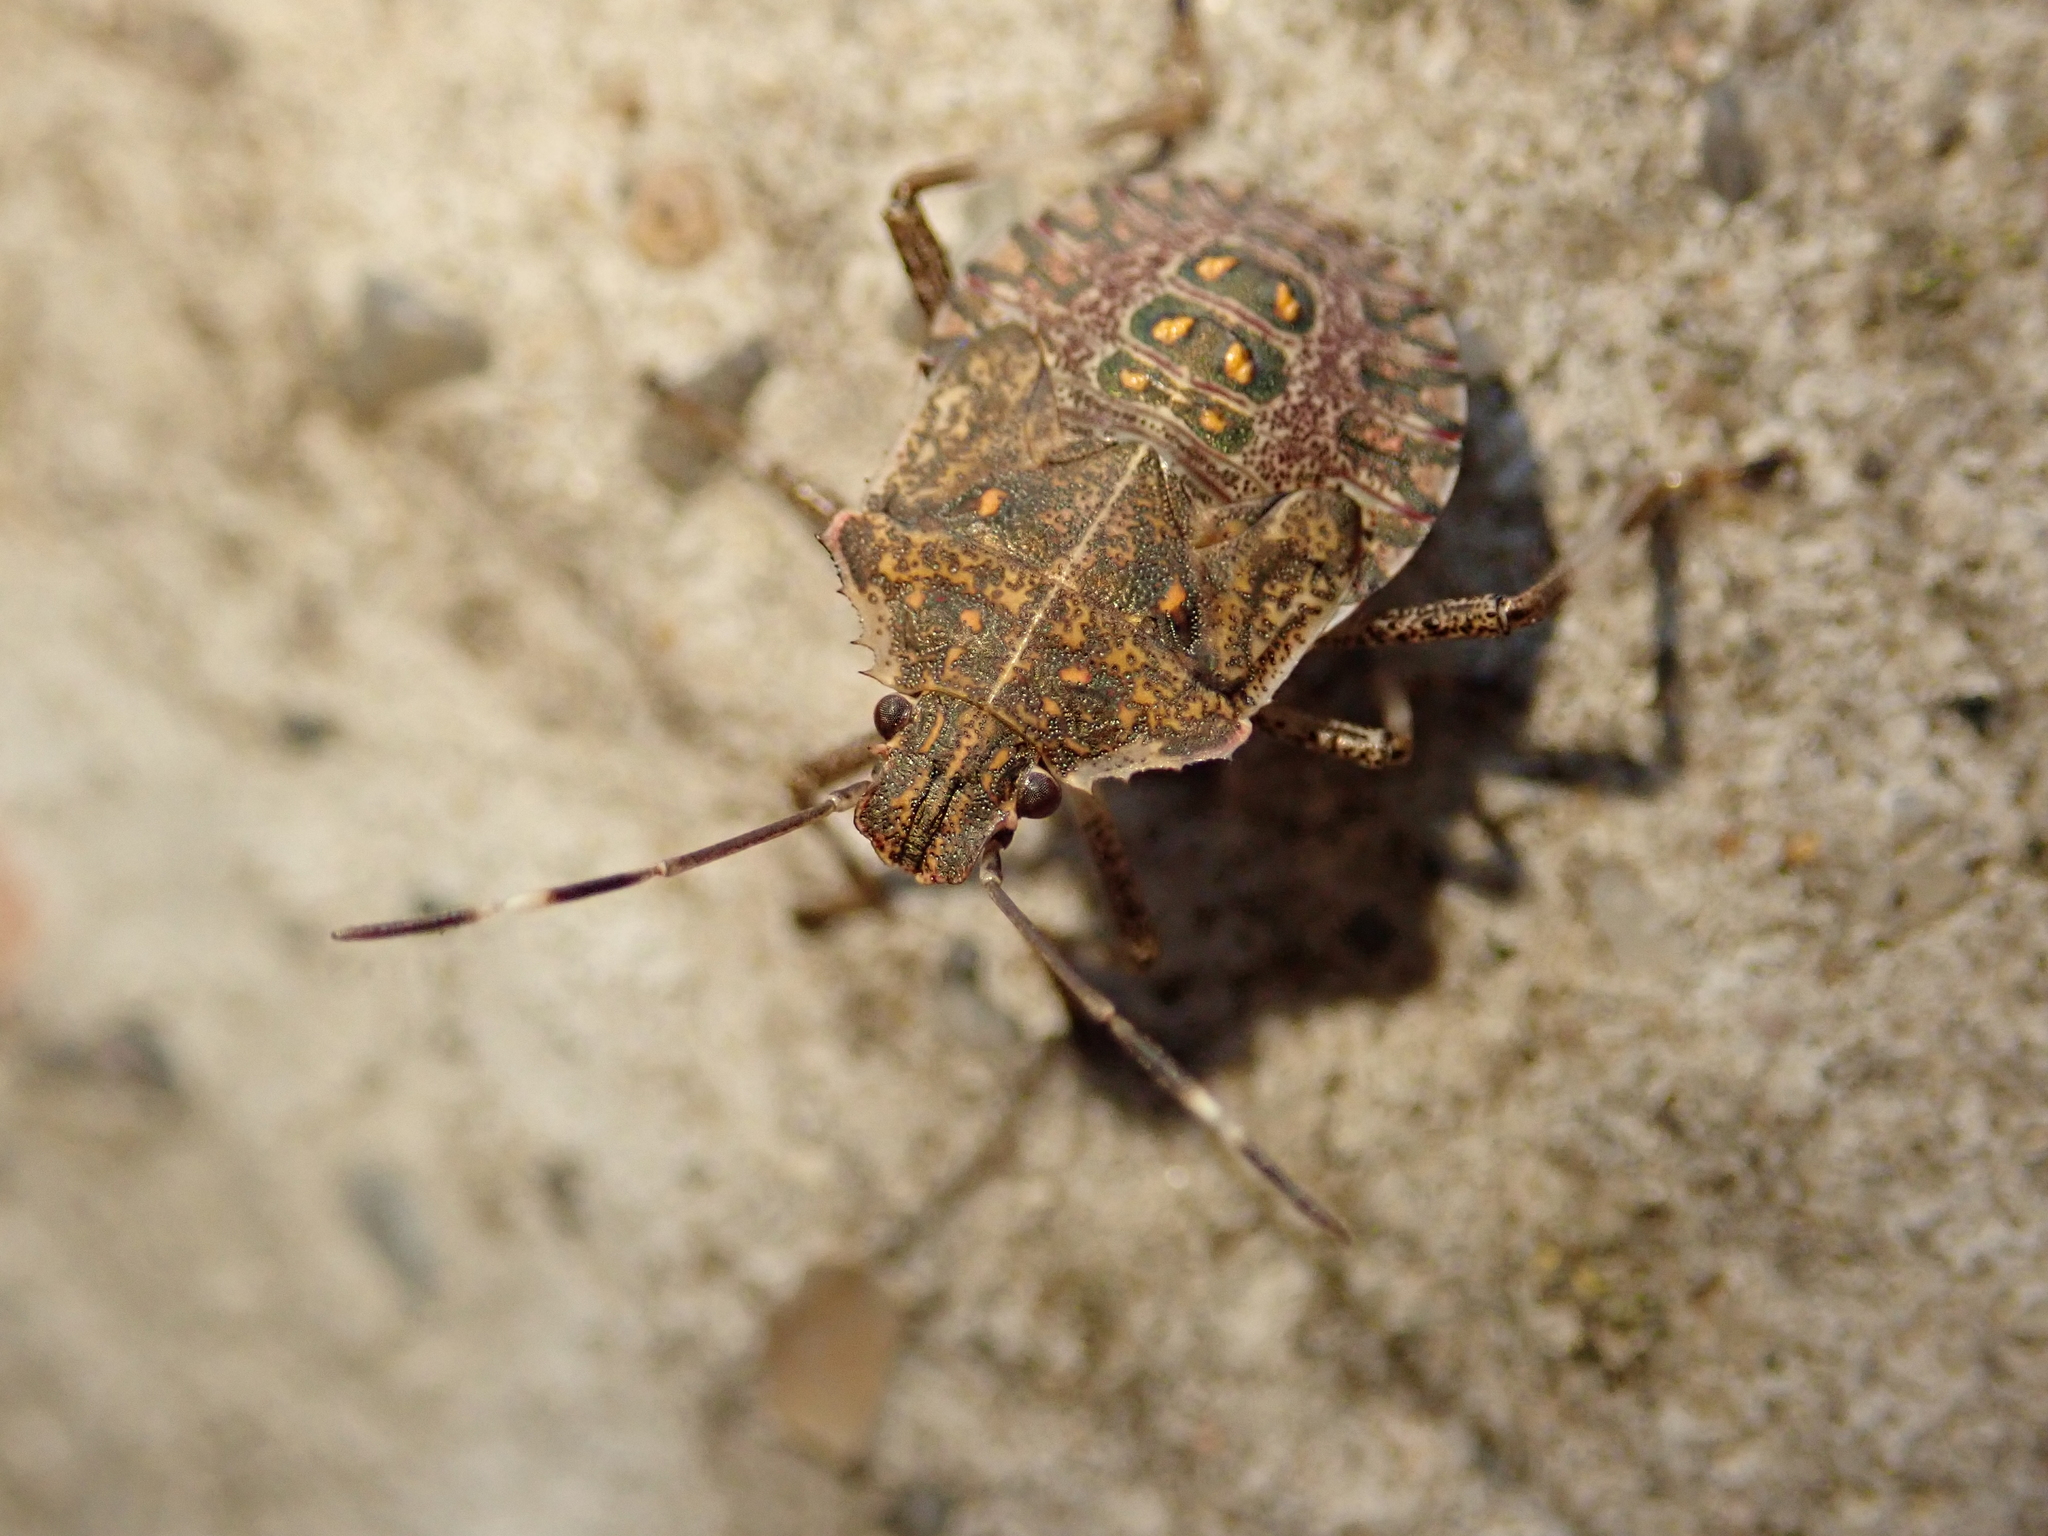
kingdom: Animalia
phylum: Arthropoda
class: Insecta
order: Hemiptera
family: Pentatomidae
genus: Halyomorpha
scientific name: Halyomorpha halys
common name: Brown marmorated stink bug
